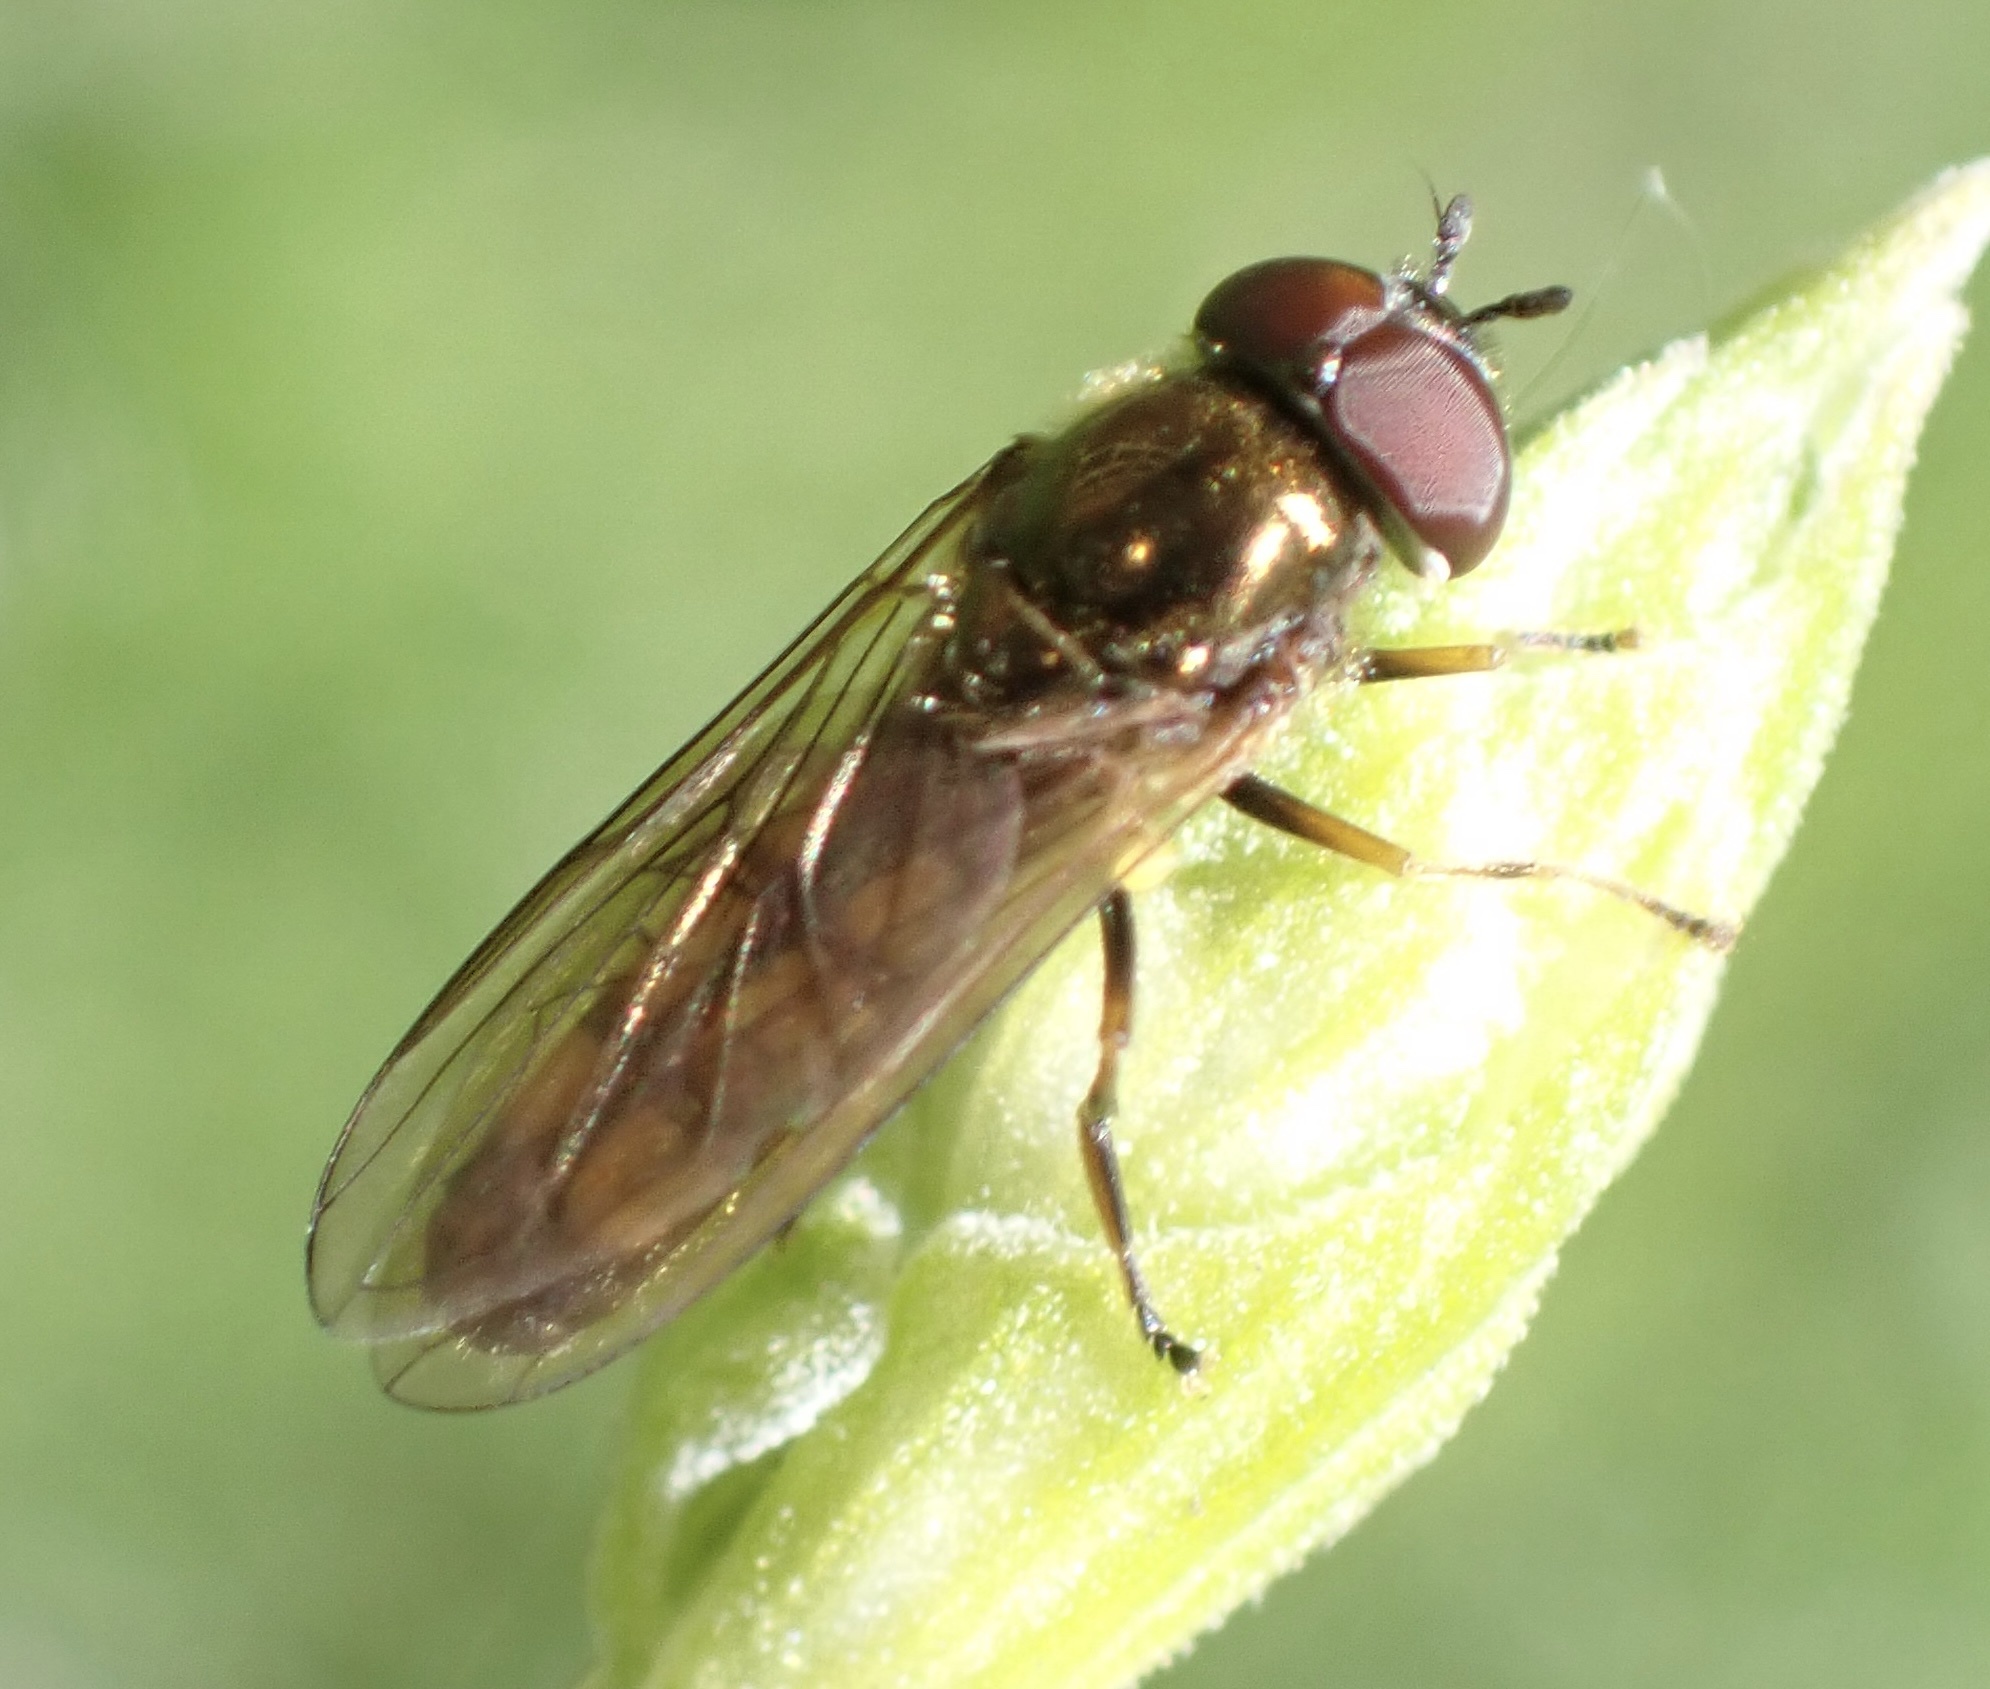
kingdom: Animalia
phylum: Arthropoda
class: Insecta
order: Diptera
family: Syrphidae
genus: Melanostoma
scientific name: Melanostoma mellina
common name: Hover fly
